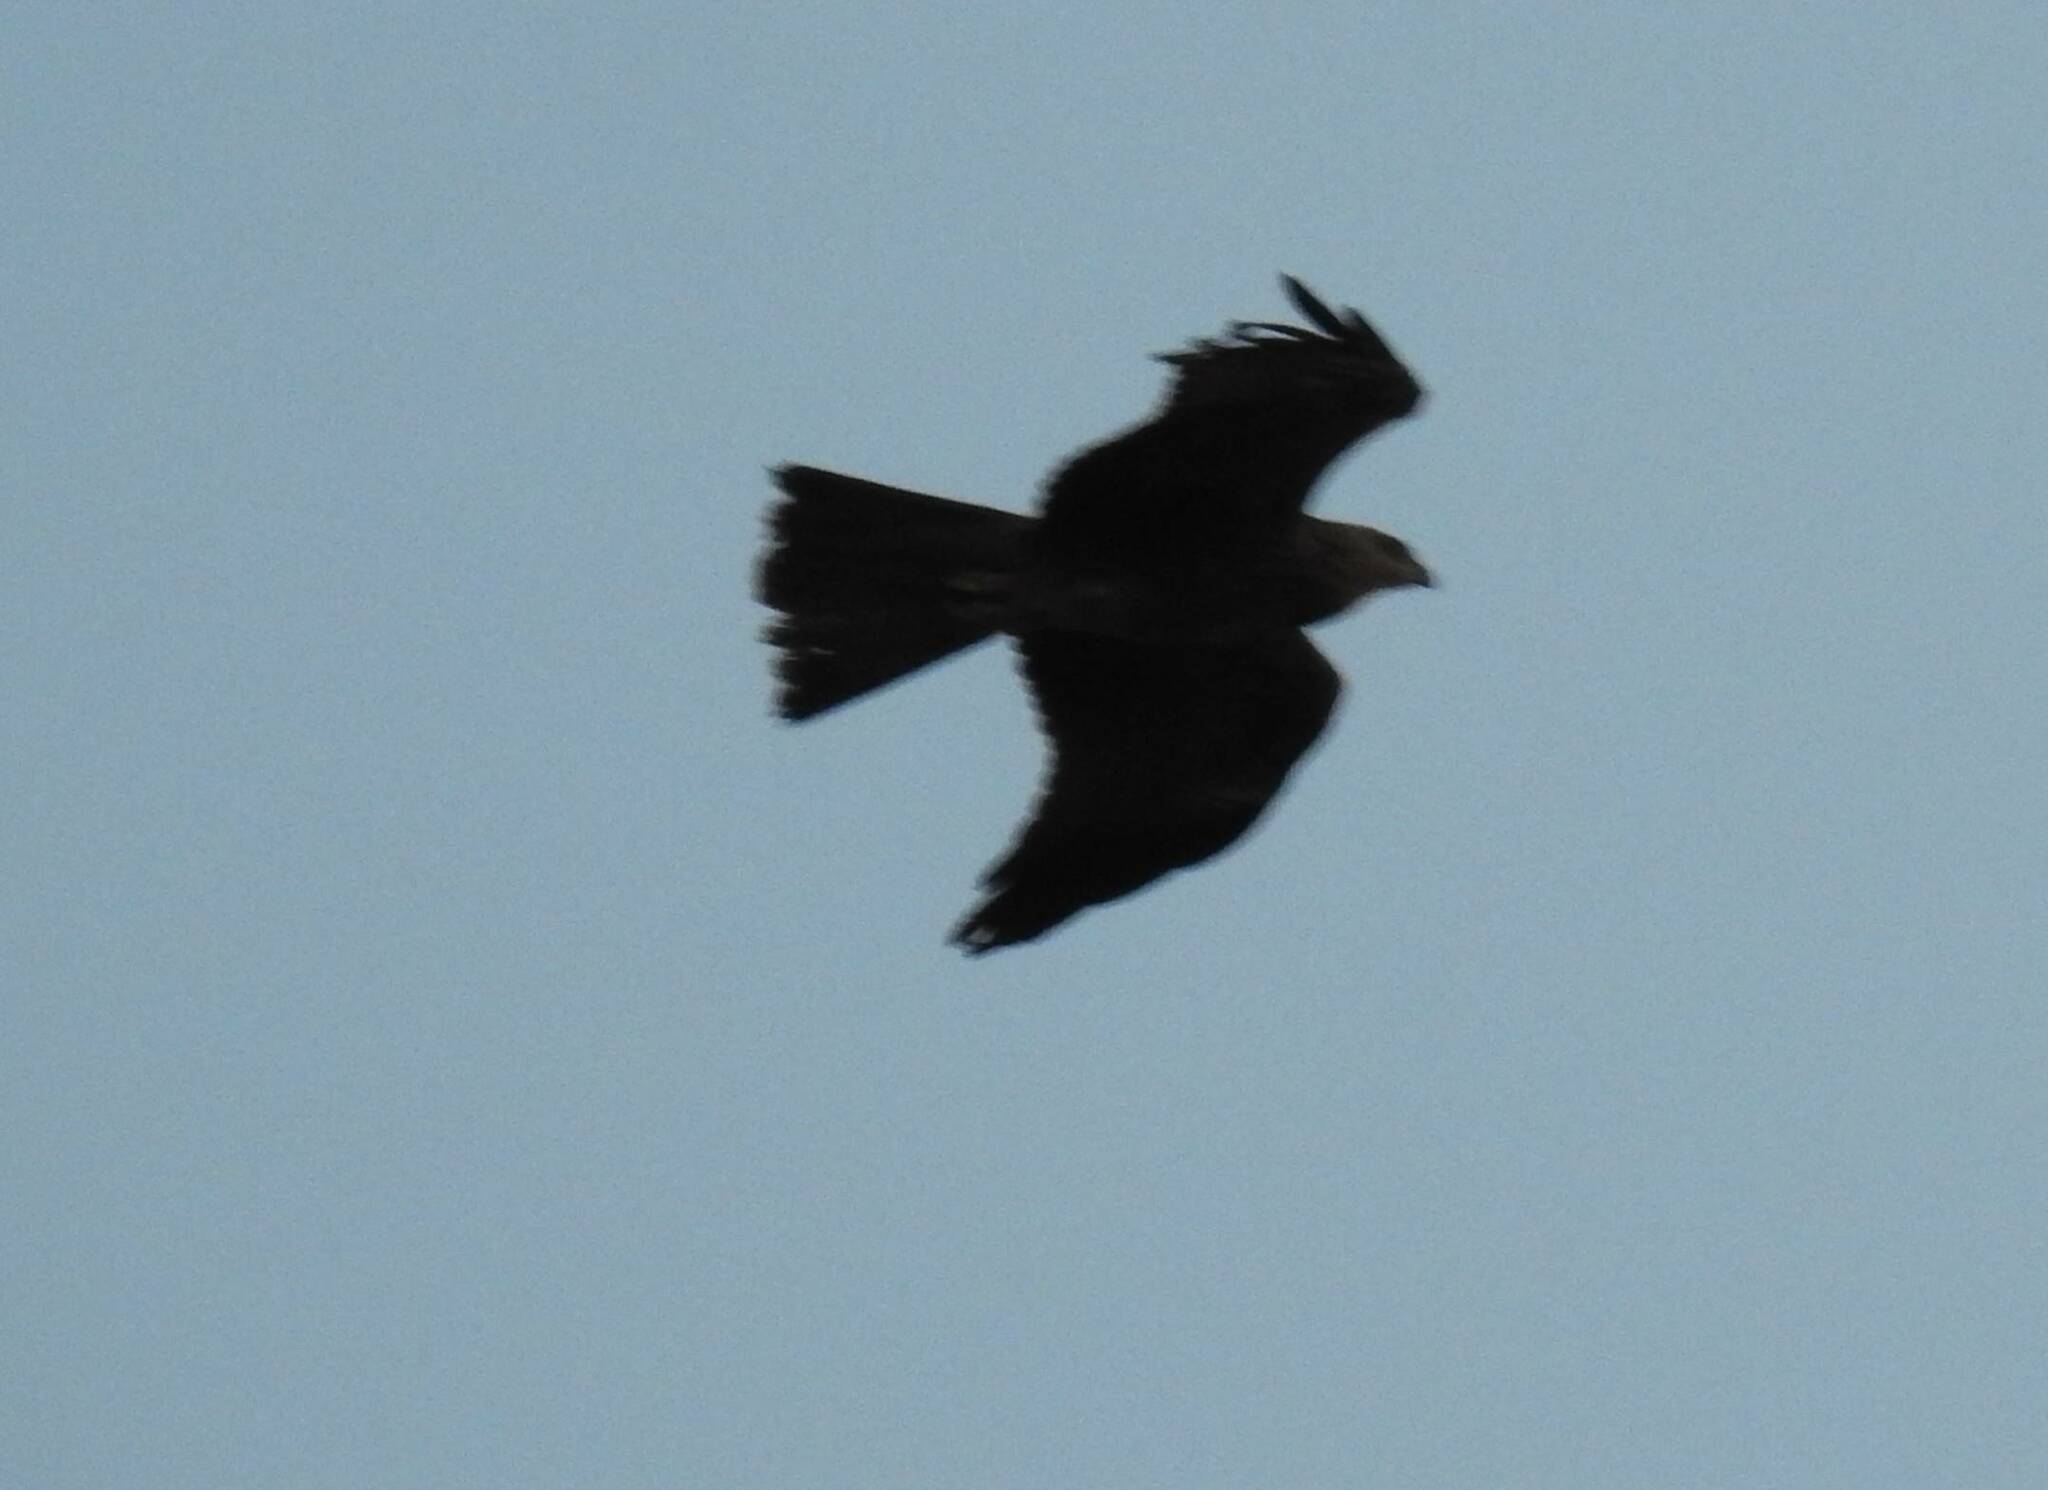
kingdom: Animalia
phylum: Chordata
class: Aves
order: Accipitriformes
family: Accipitridae
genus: Milvus
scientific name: Milvus migrans
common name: Black kite
